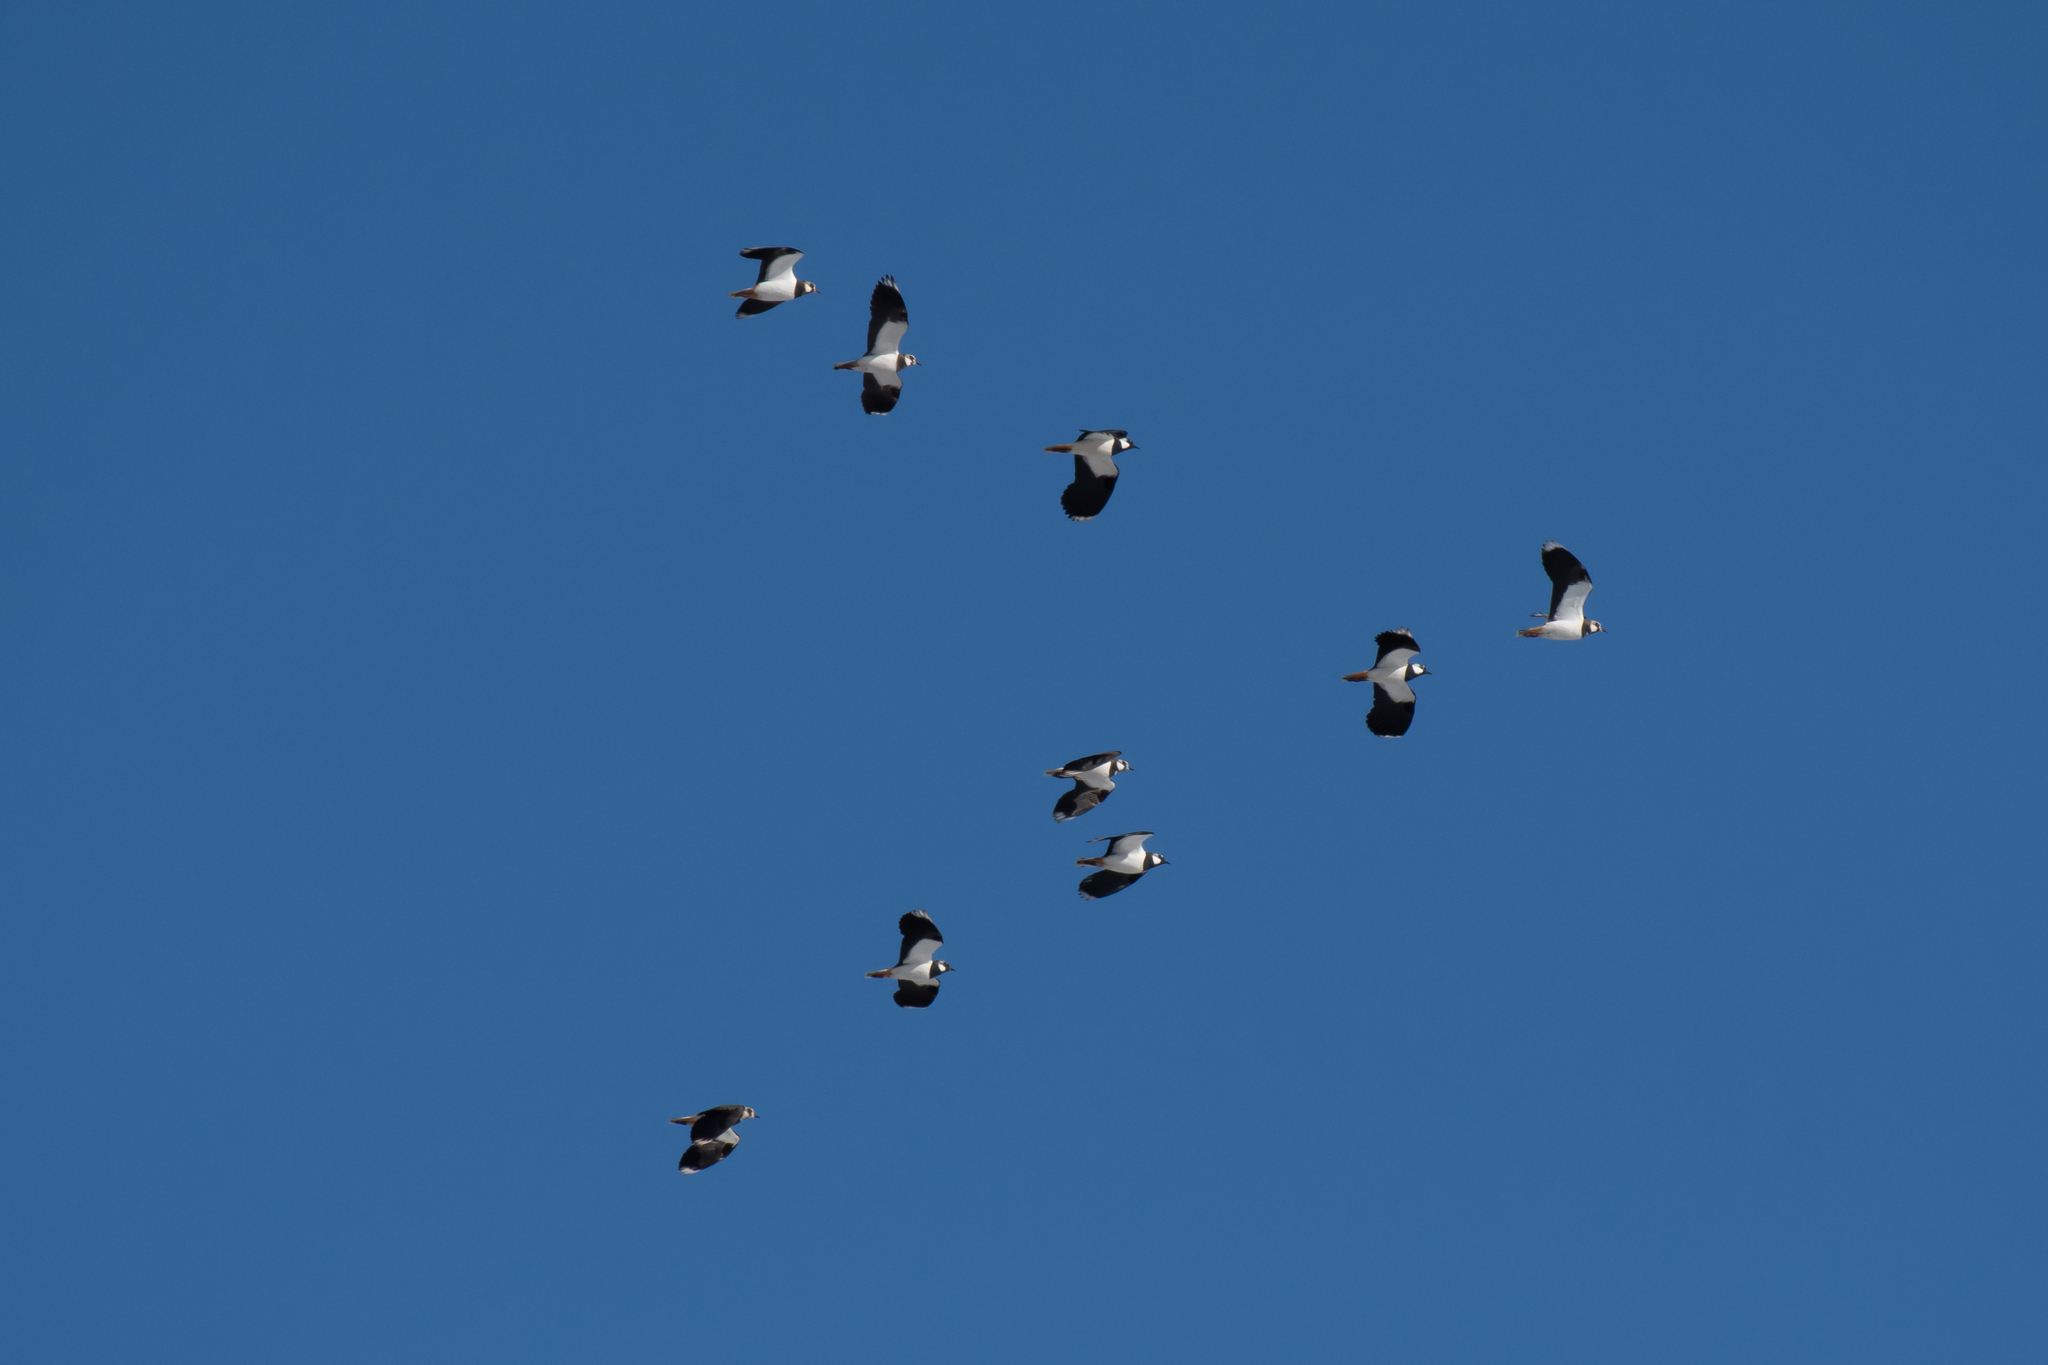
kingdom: Animalia
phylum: Chordata
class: Aves
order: Charadriiformes
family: Charadriidae
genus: Vanellus
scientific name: Vanellus vanellus
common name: Northern lapwing
